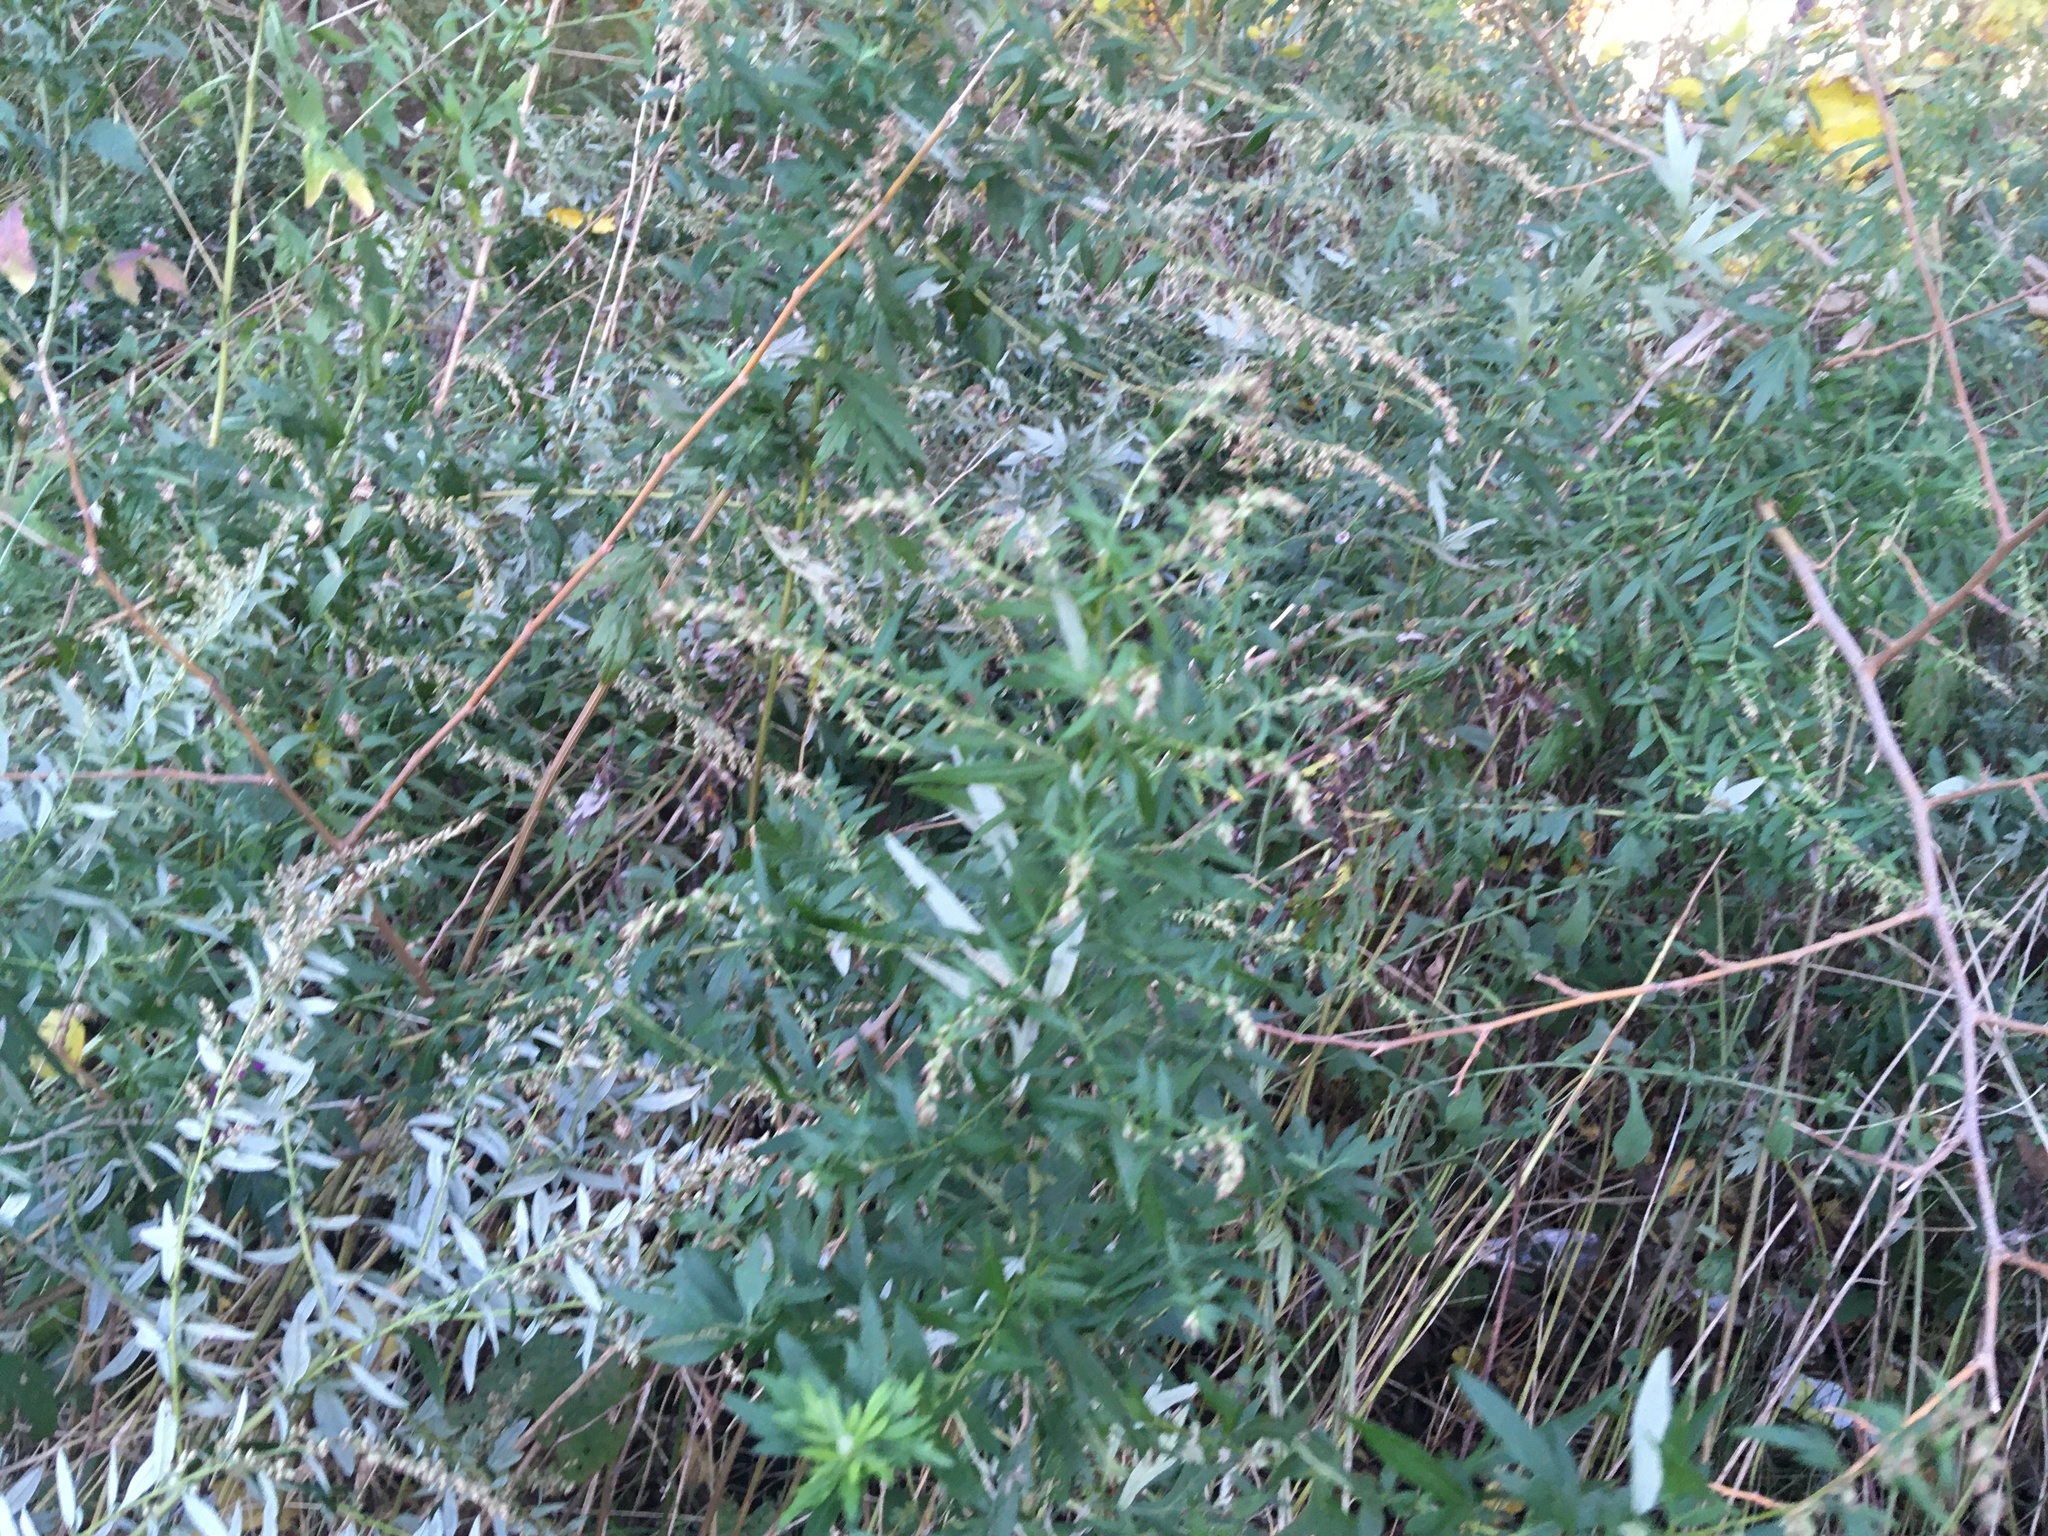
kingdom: Plantae
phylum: Tracheophyta
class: Magnoliopsida
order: Asterales
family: Asteraceae
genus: Artemisia
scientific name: Artemisia vulgaris
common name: Mugwort
